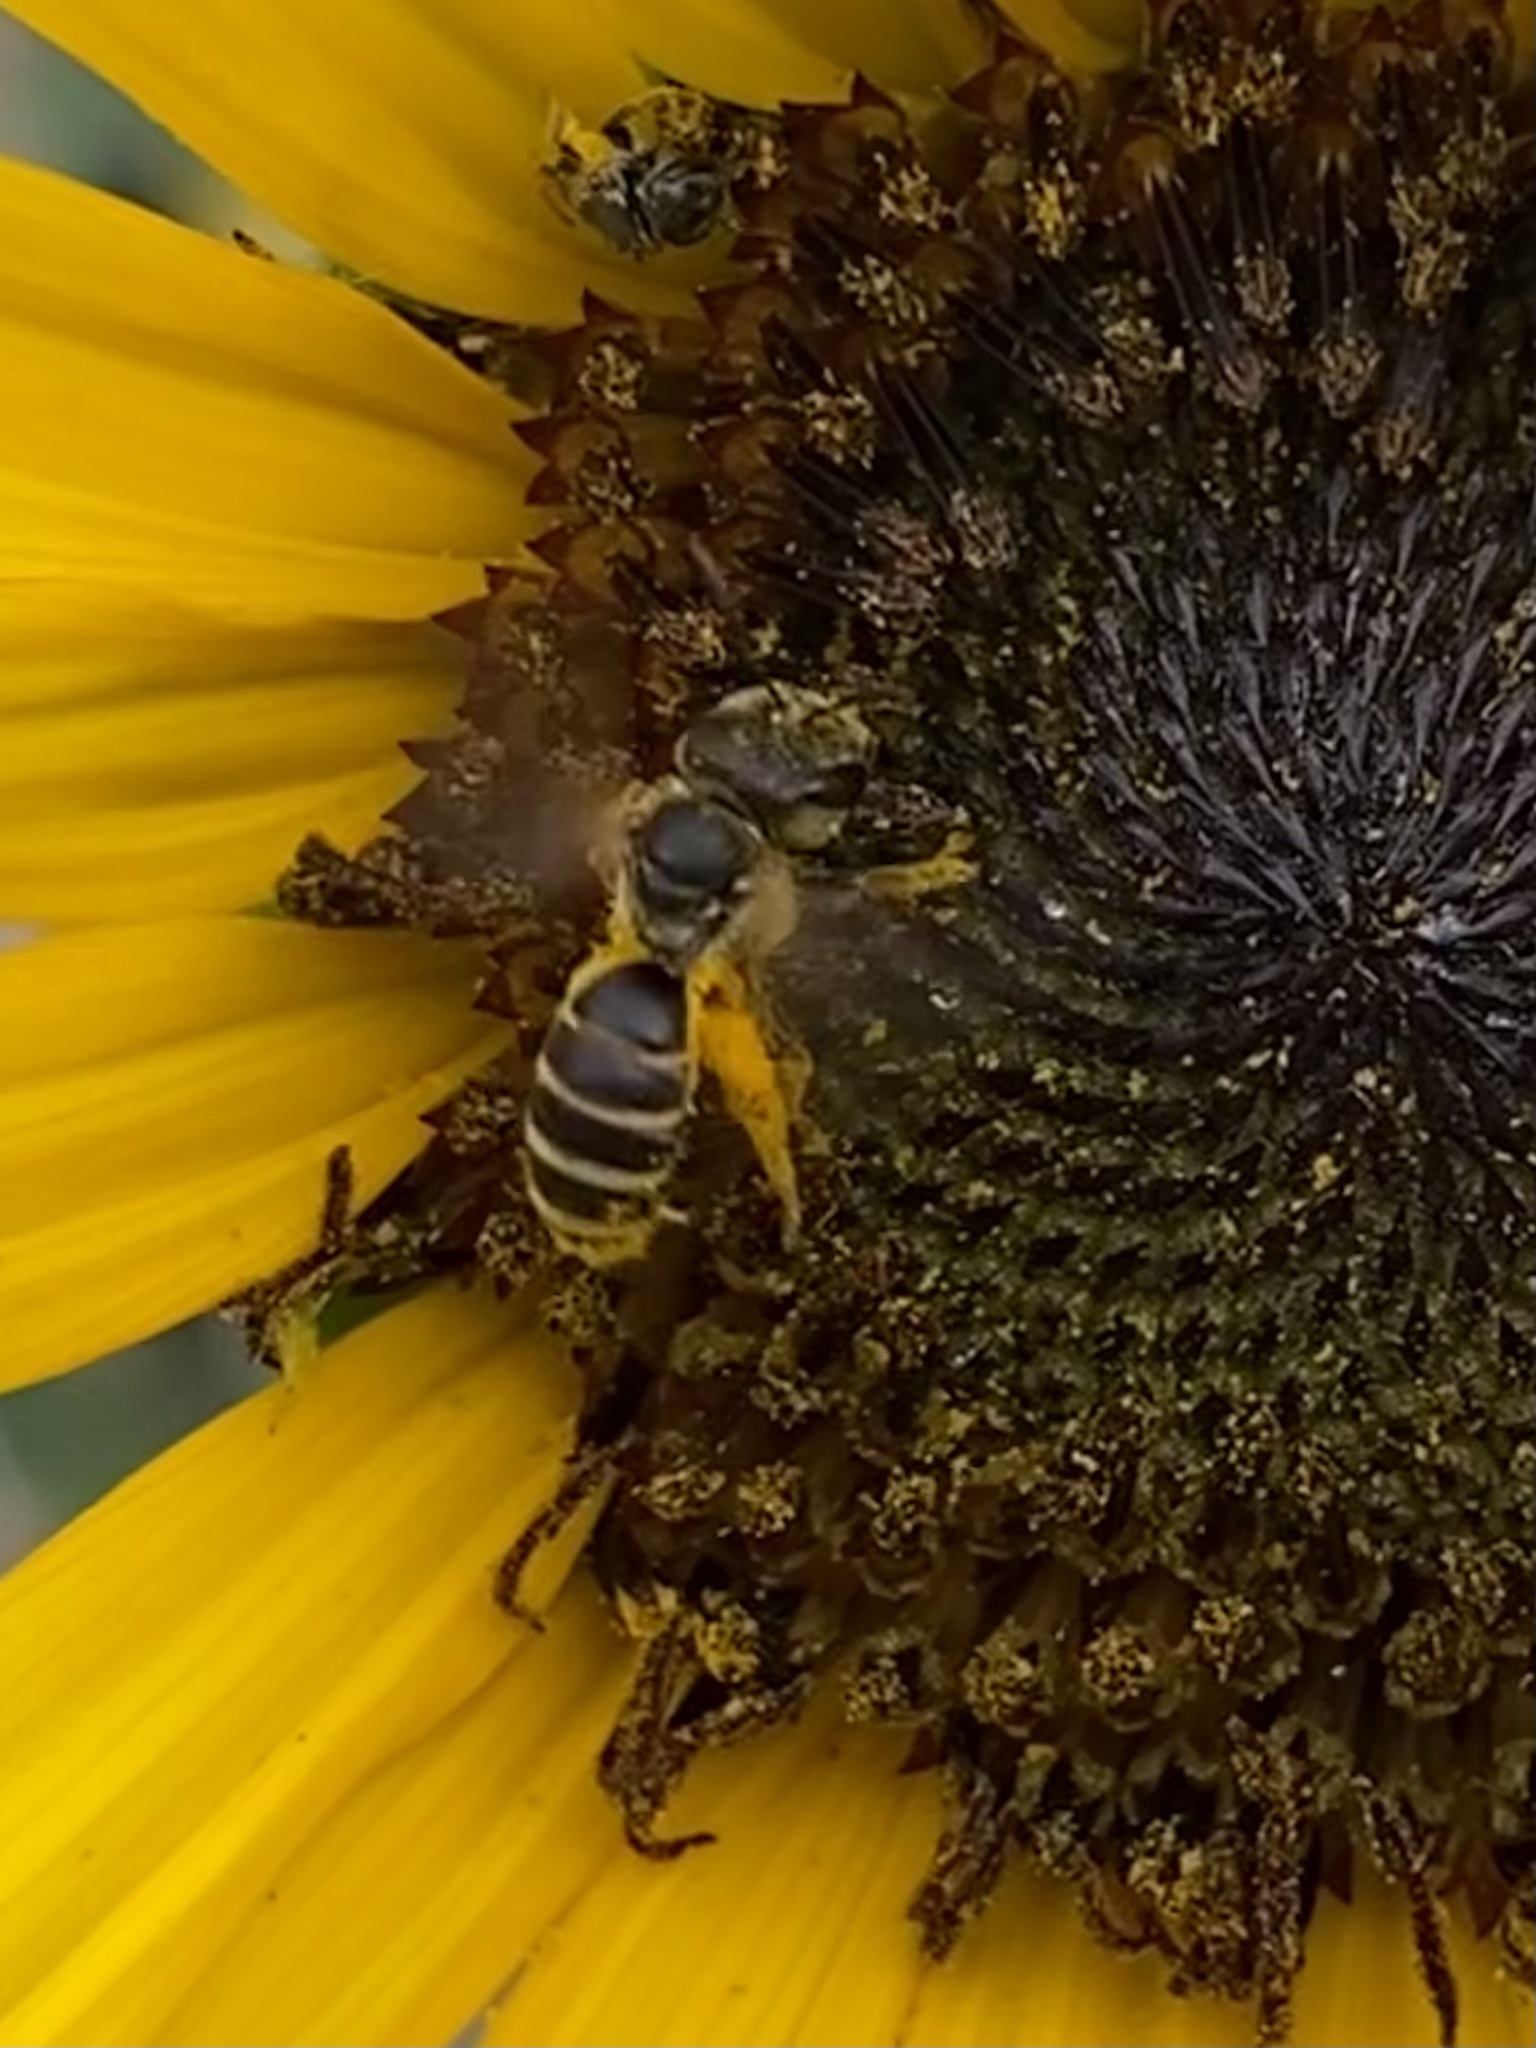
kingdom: Animalia
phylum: Arthropoda
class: Insecta
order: Hymenoptera
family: Halictidae
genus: Halictus
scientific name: Halictus ligatus
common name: Ligated furrow bee
